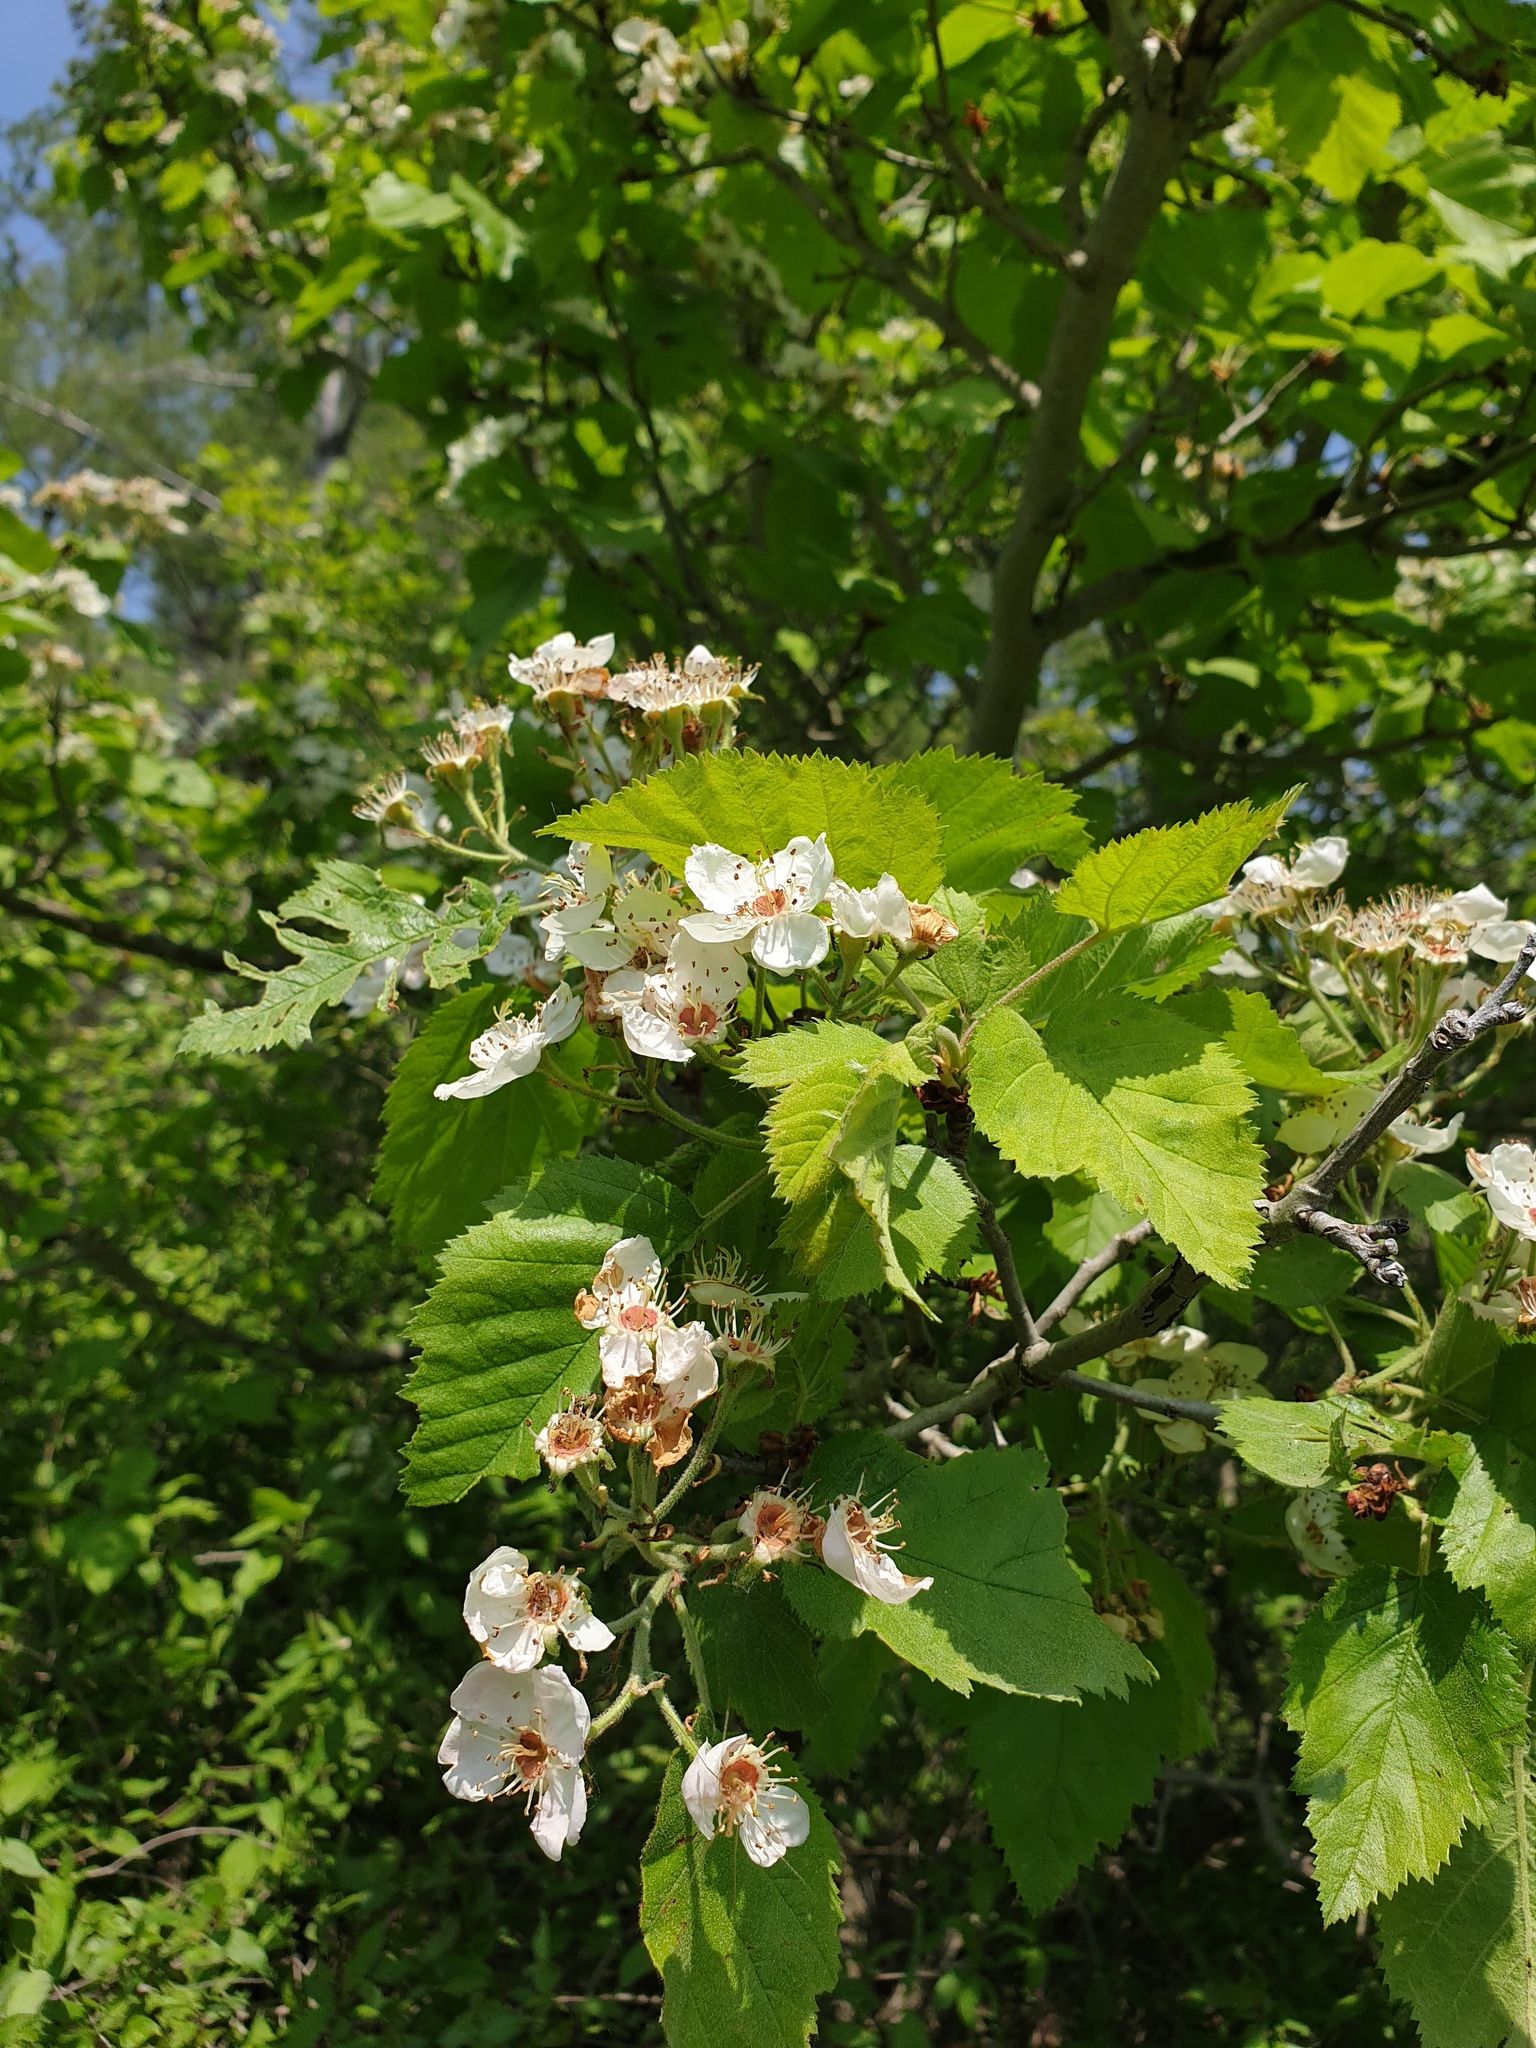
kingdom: Plantae
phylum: Tracheophyta
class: Magnoliopsida
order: Rosales
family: Rosaceae
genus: Crataegus
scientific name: Crataegus mollis
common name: Downy hawthorn
